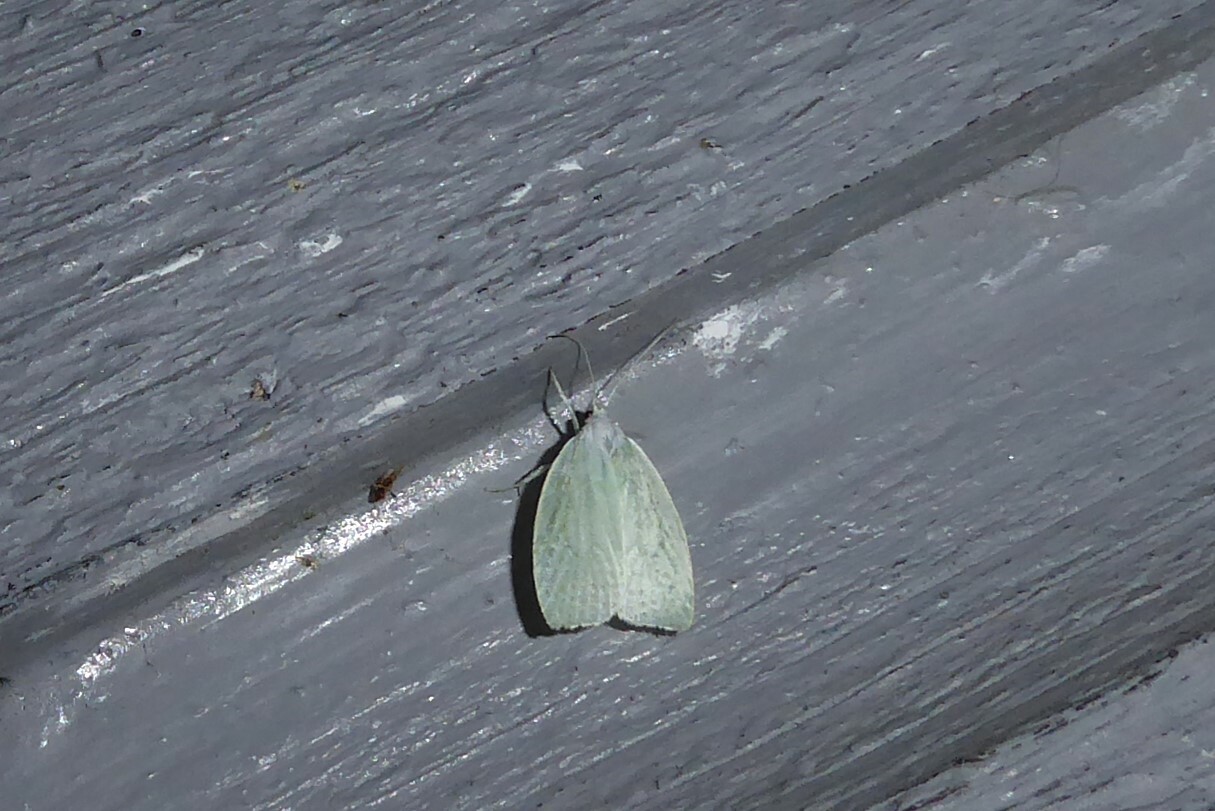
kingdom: Animalia
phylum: Arthropoda
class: Insecta
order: Lepidoptera
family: Oecophoridae
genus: Nymphostola
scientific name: Nymphostola galactina
